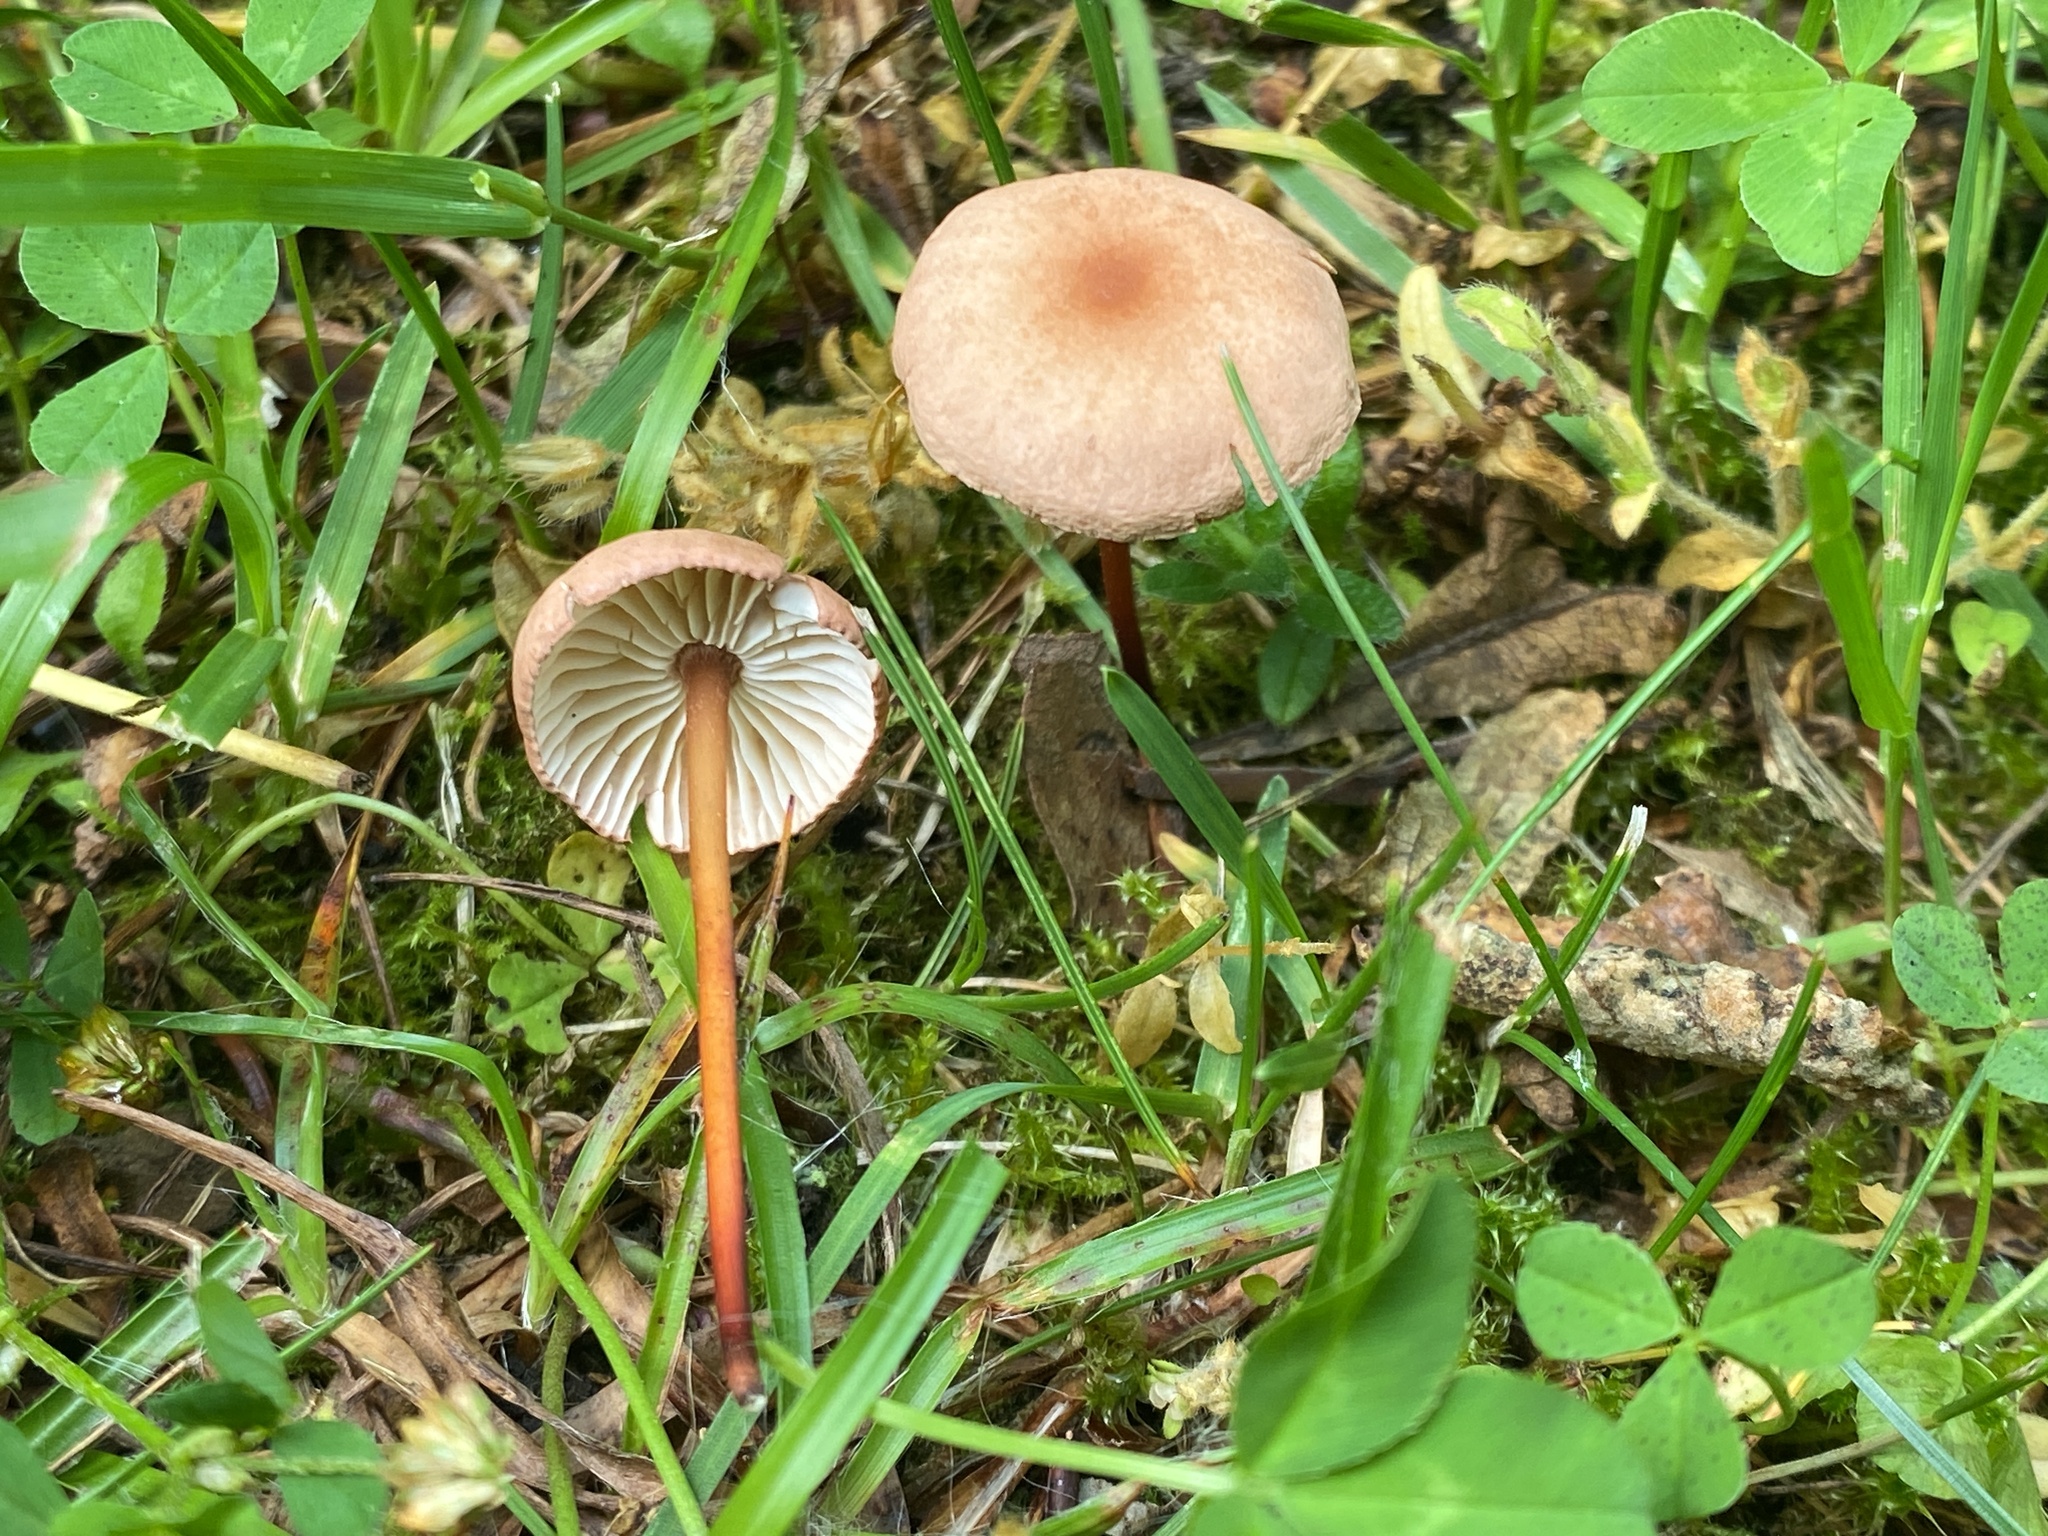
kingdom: Fungi
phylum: Basidiomycota
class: Agaricomycetes
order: Agaricales
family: Omphalotaceae
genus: Mycetinis
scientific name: Mycetinis scorodonius
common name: Vampires bane
